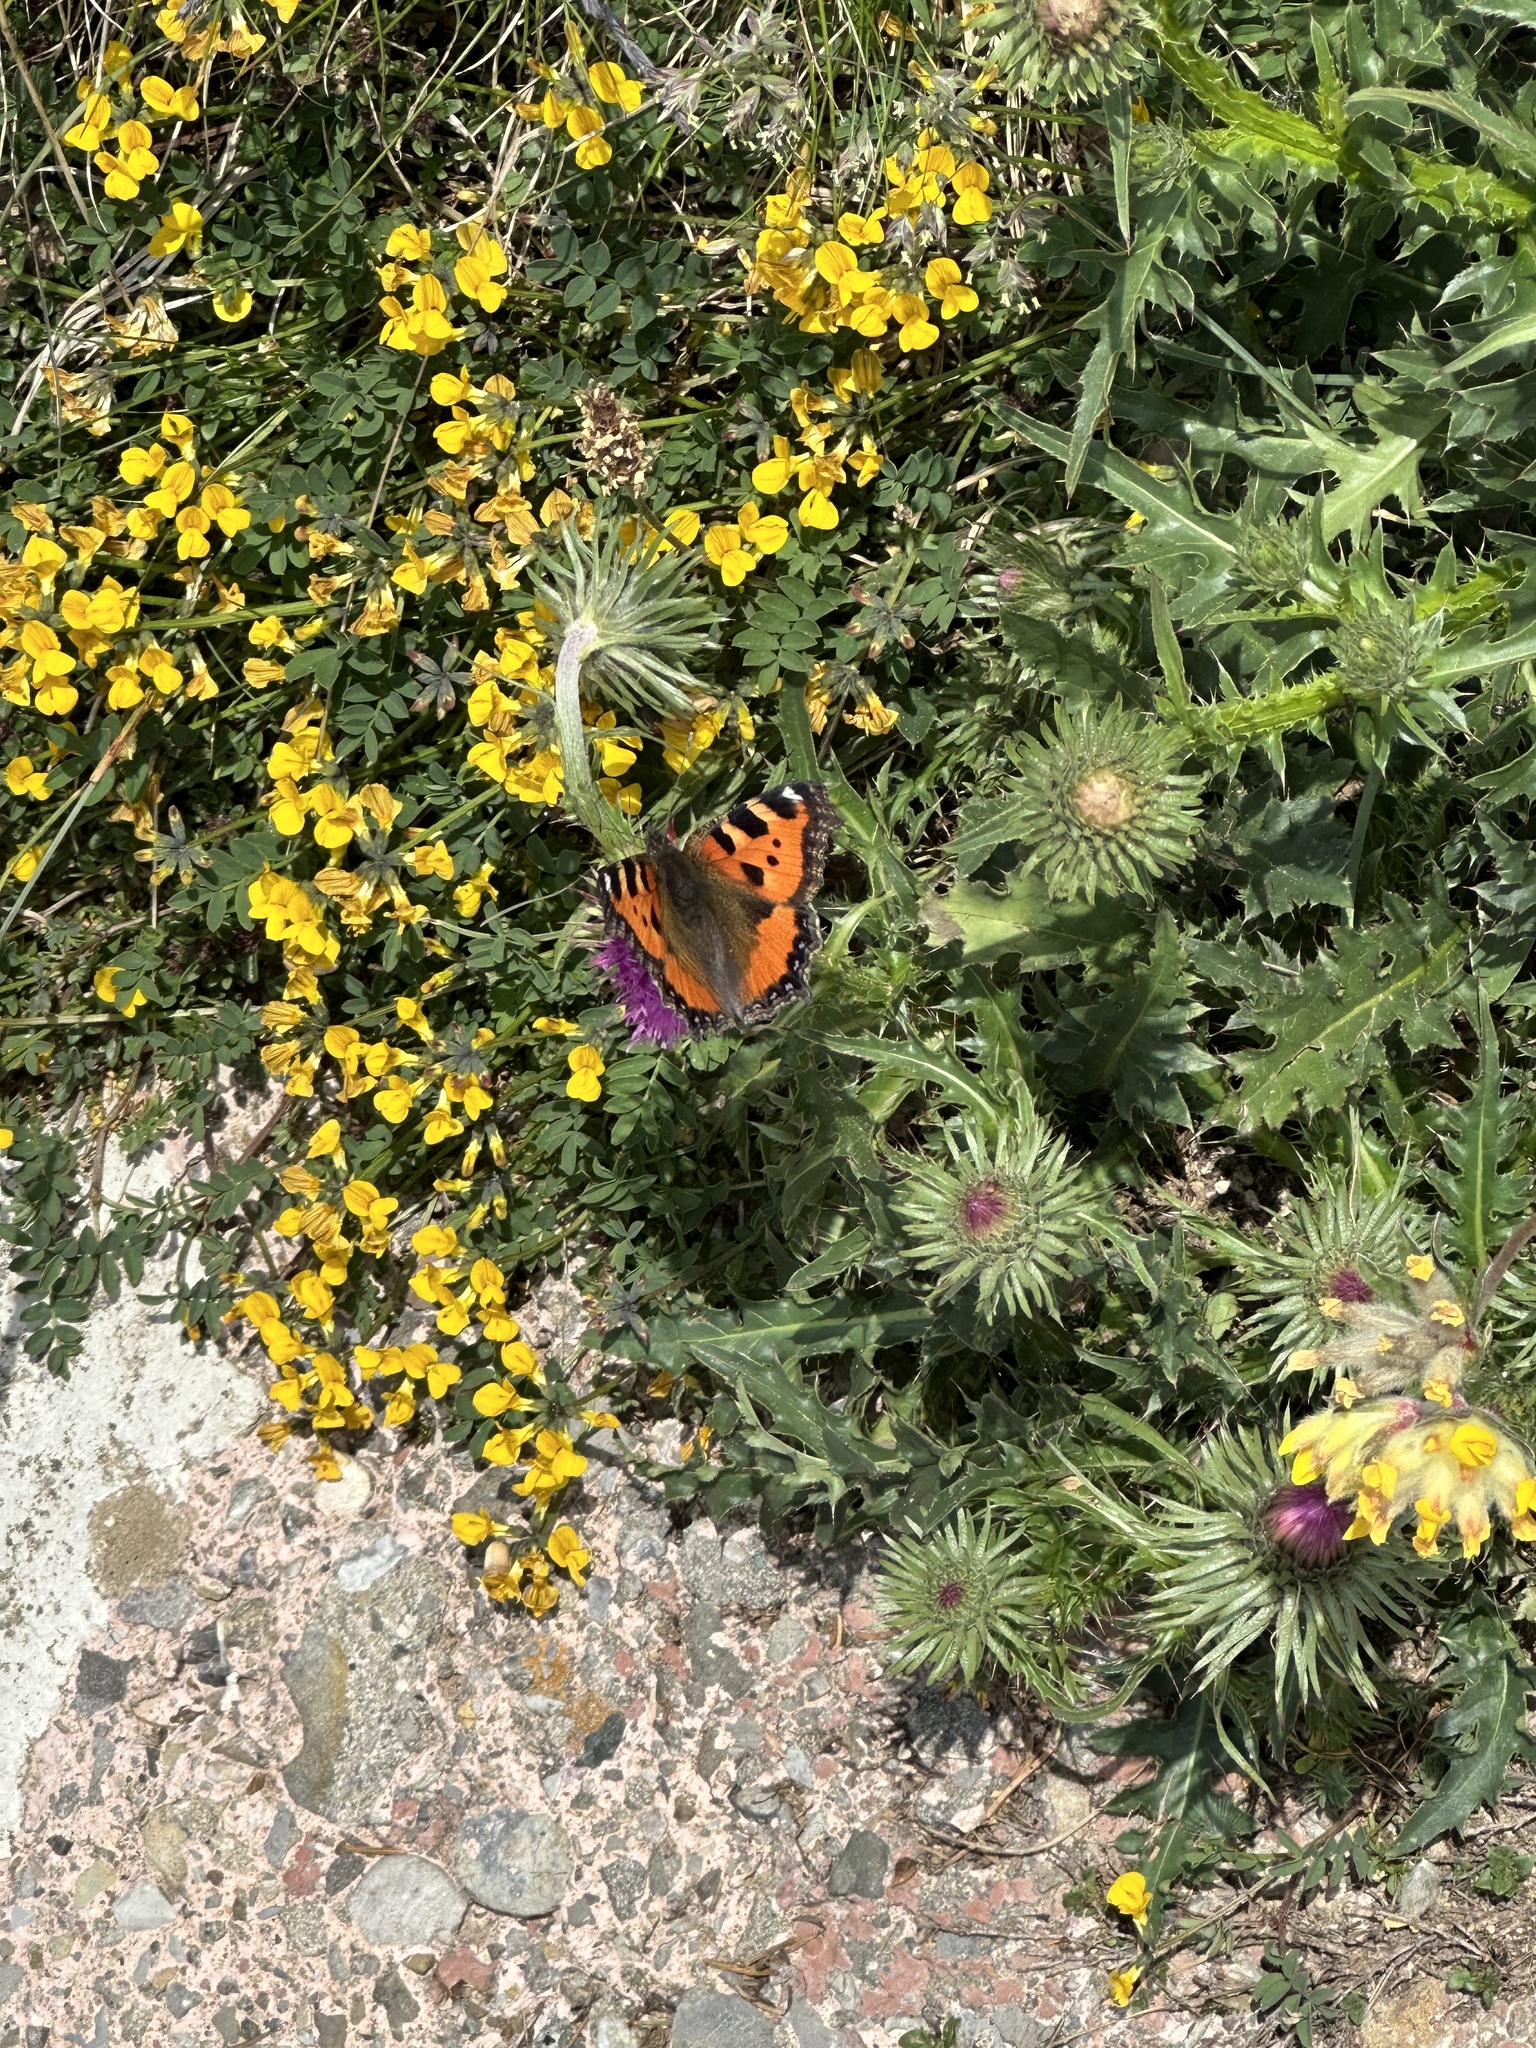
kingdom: Animalia
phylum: Arthropoda
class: Insecta
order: Lepidoptera
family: Nymphalidae
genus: Aglais
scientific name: Aglais urticae
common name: Small tortoiseshell
